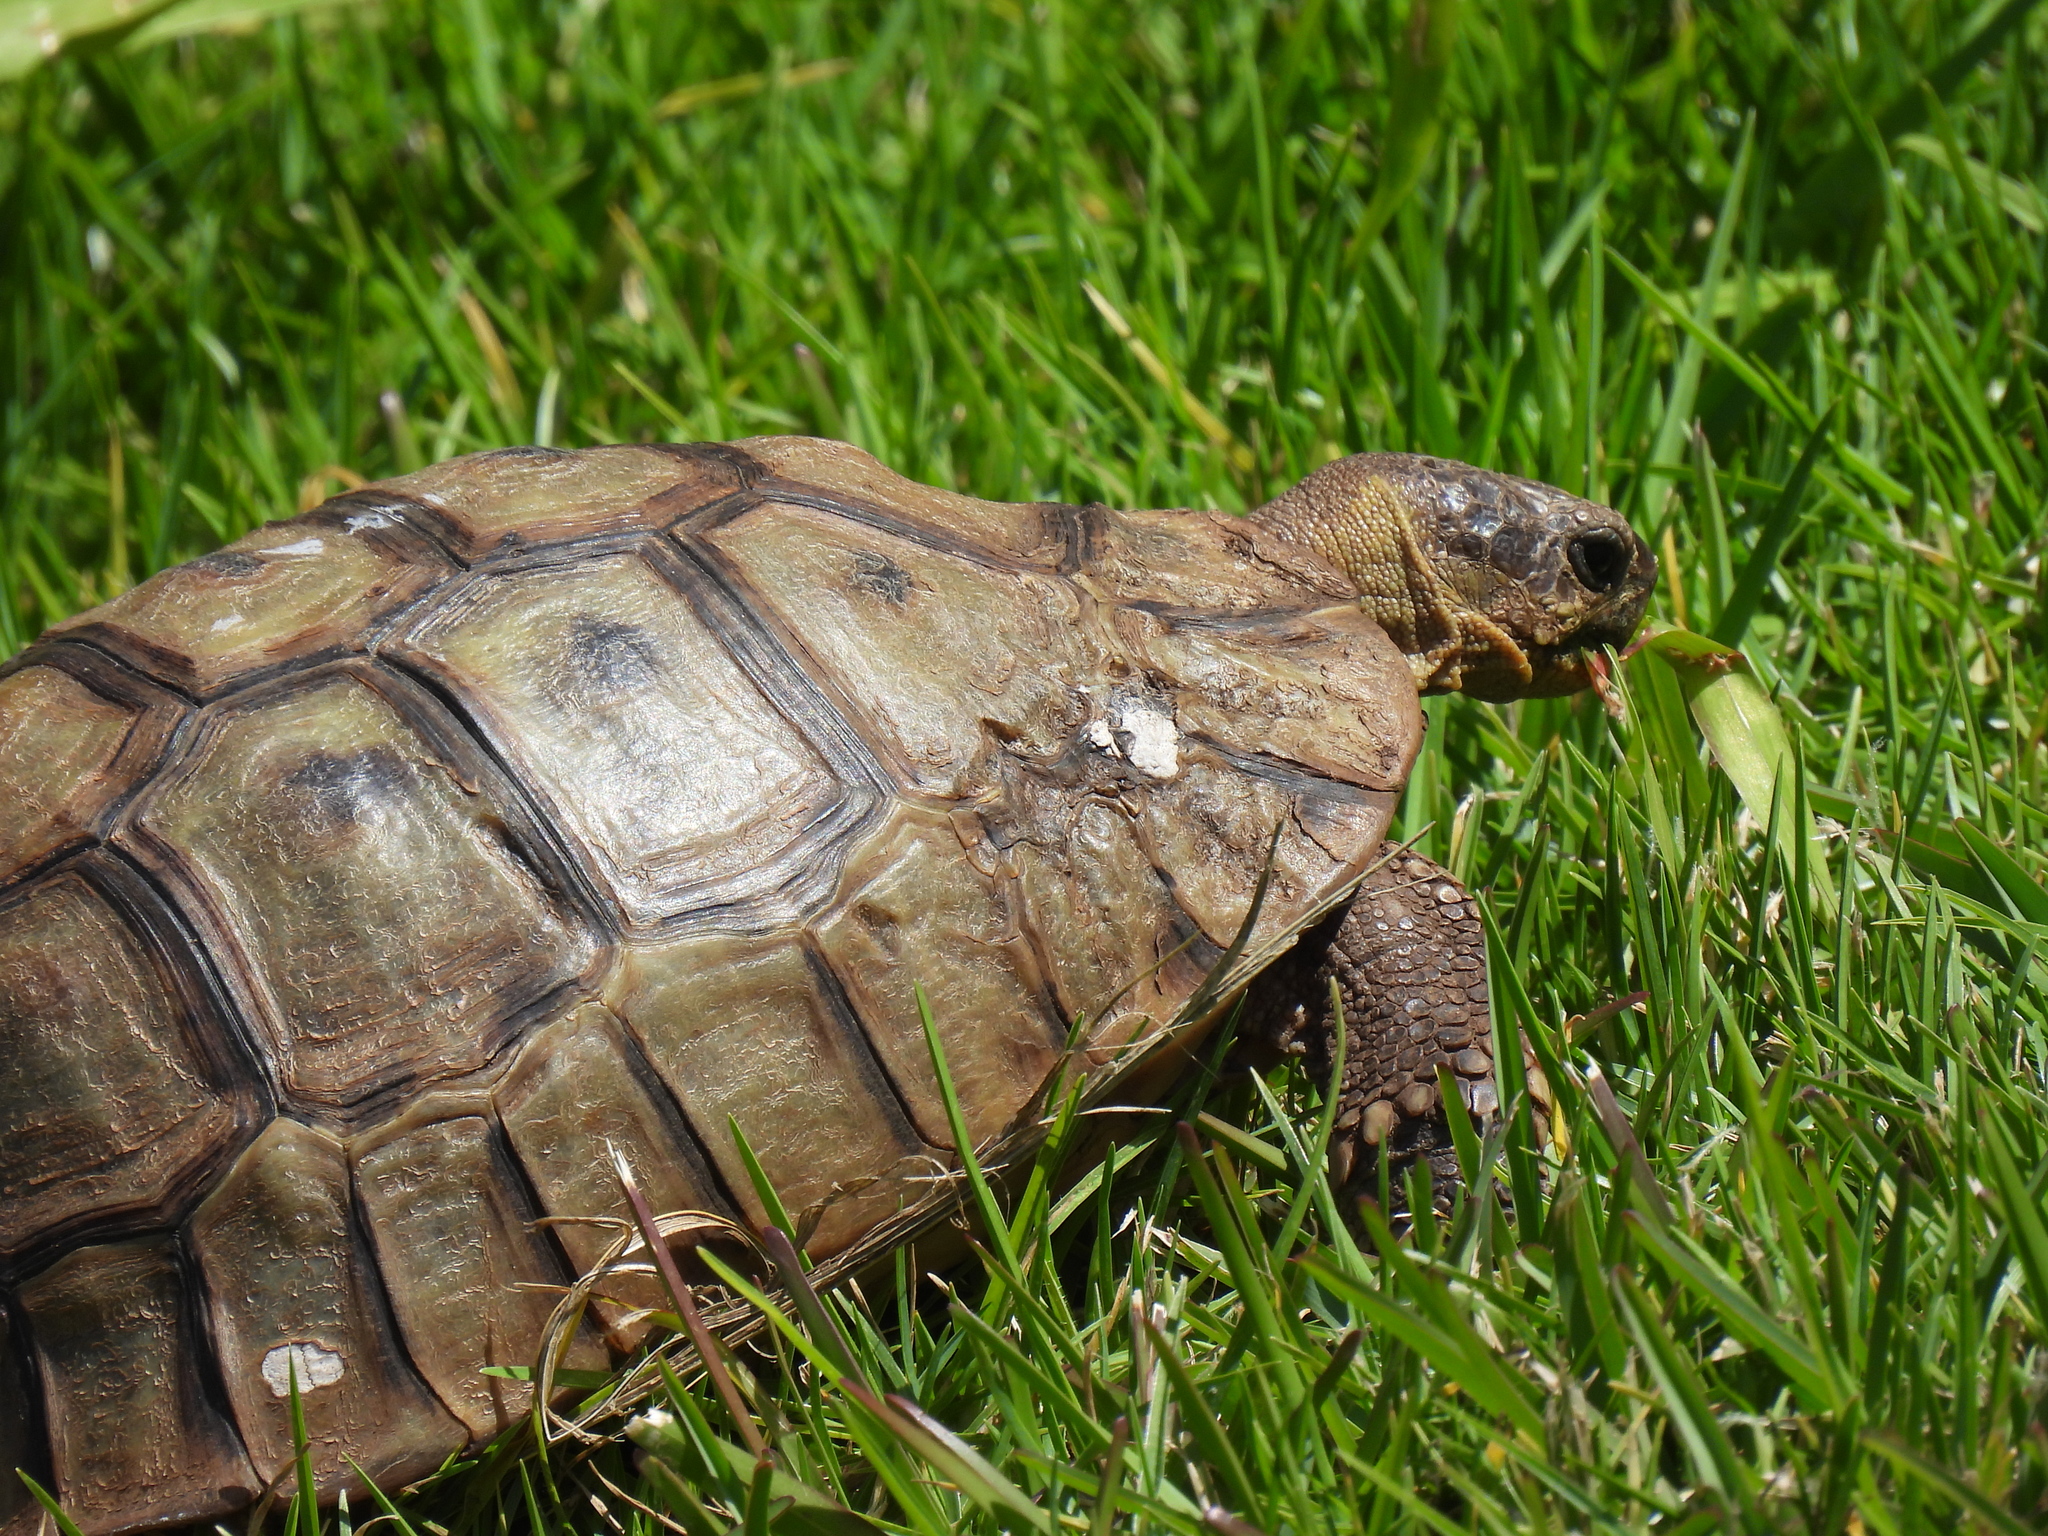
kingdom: Animalia
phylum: Chordata
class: Testudines
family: Testudinidae
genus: Chersina
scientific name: Chersina angulata
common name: South african bowsprit tortoise
